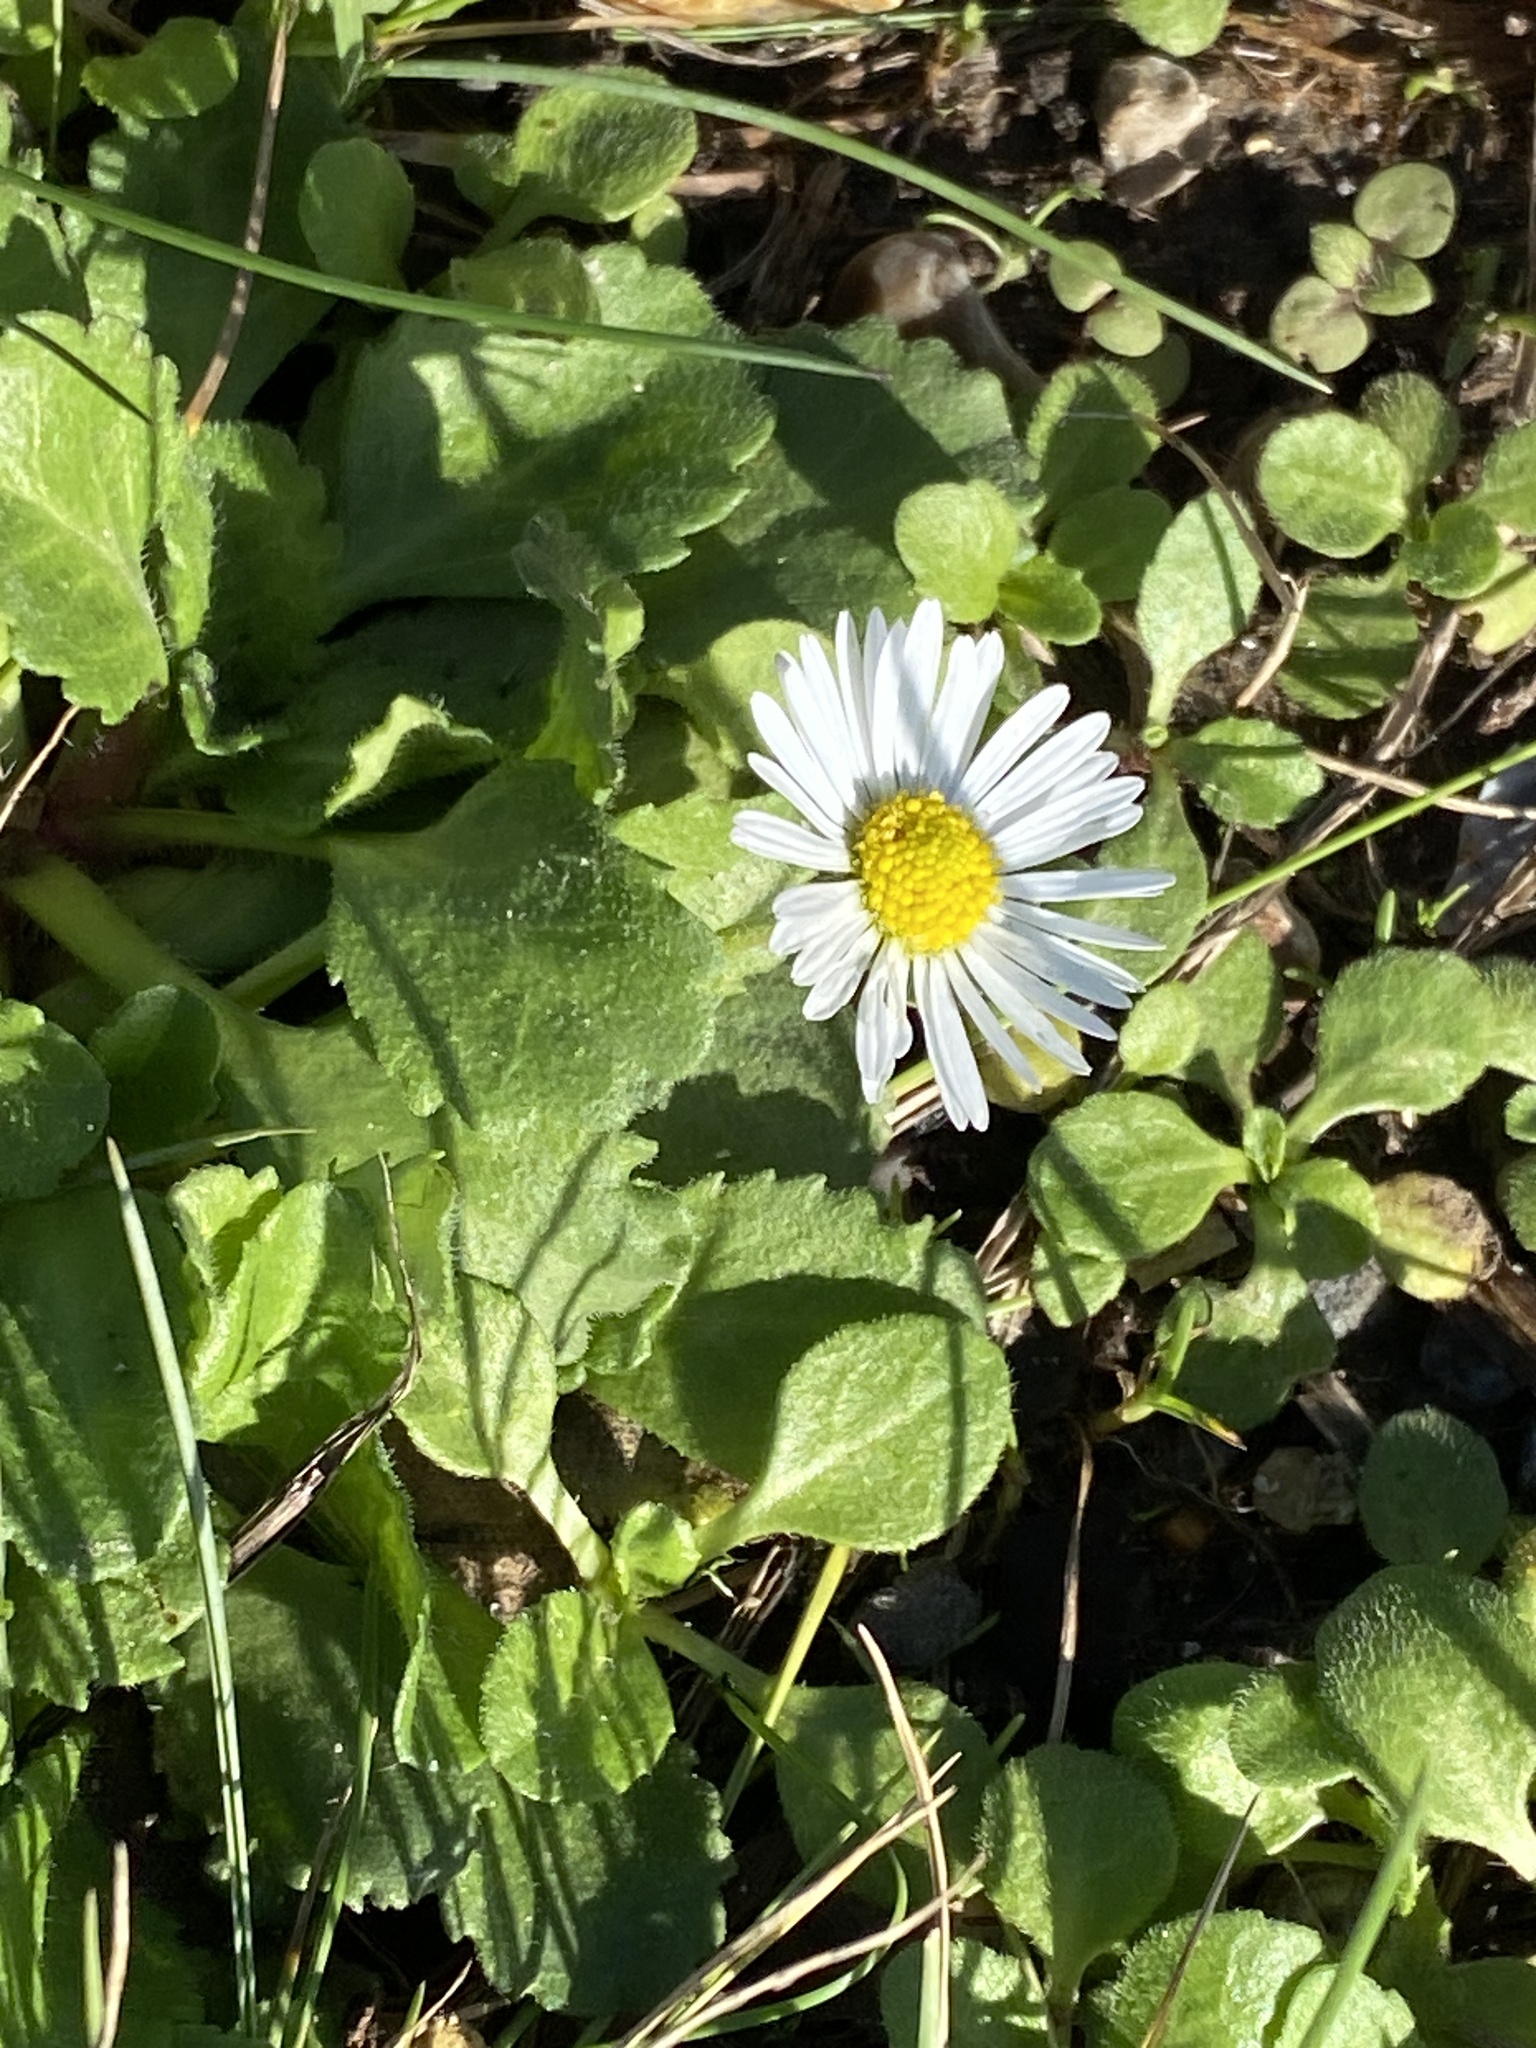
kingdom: Plantae
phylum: Tracheophyta
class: Magnoliopsida
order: Asterales
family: Asteraceae
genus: Bellis
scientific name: Bellis perennis
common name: Lawndaisy
